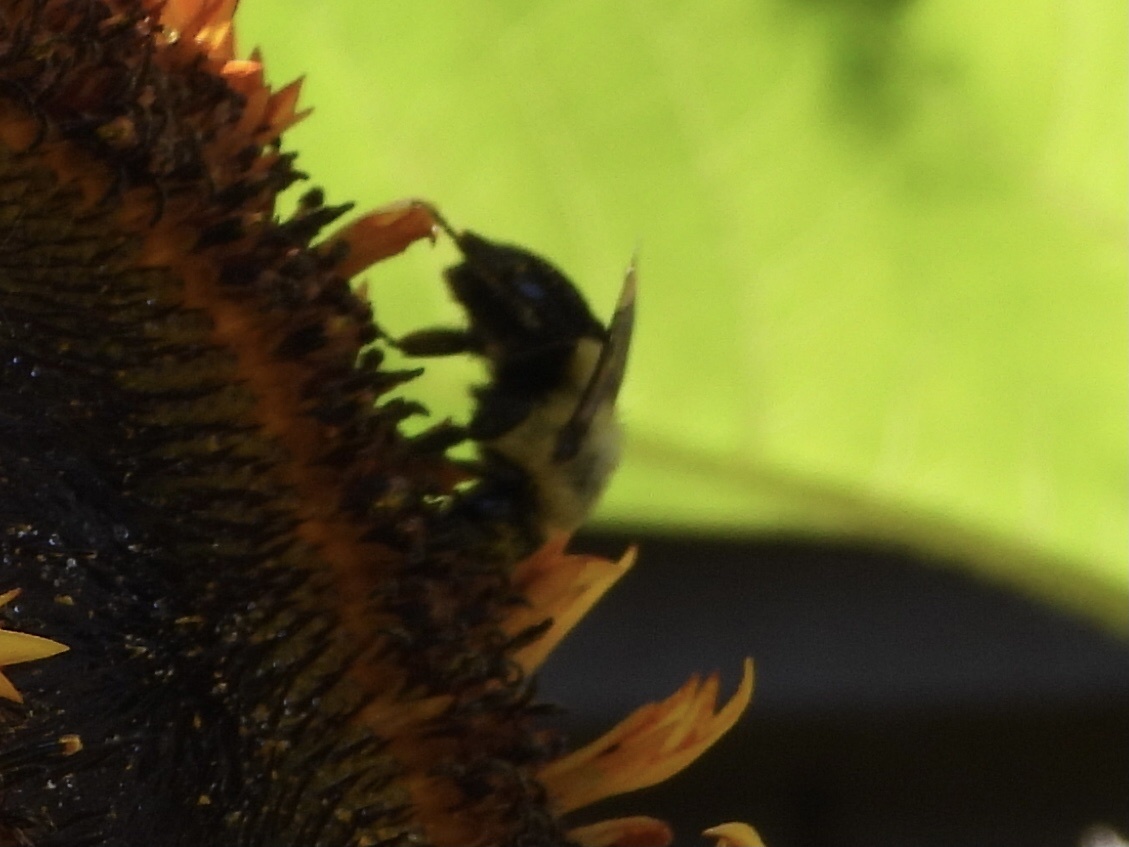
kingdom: Animalia
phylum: Arthropoda
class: Insecta
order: Hymenoptera
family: Apidae
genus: Bombus
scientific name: Bombus impatiens
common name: Common eastern bumble bee
